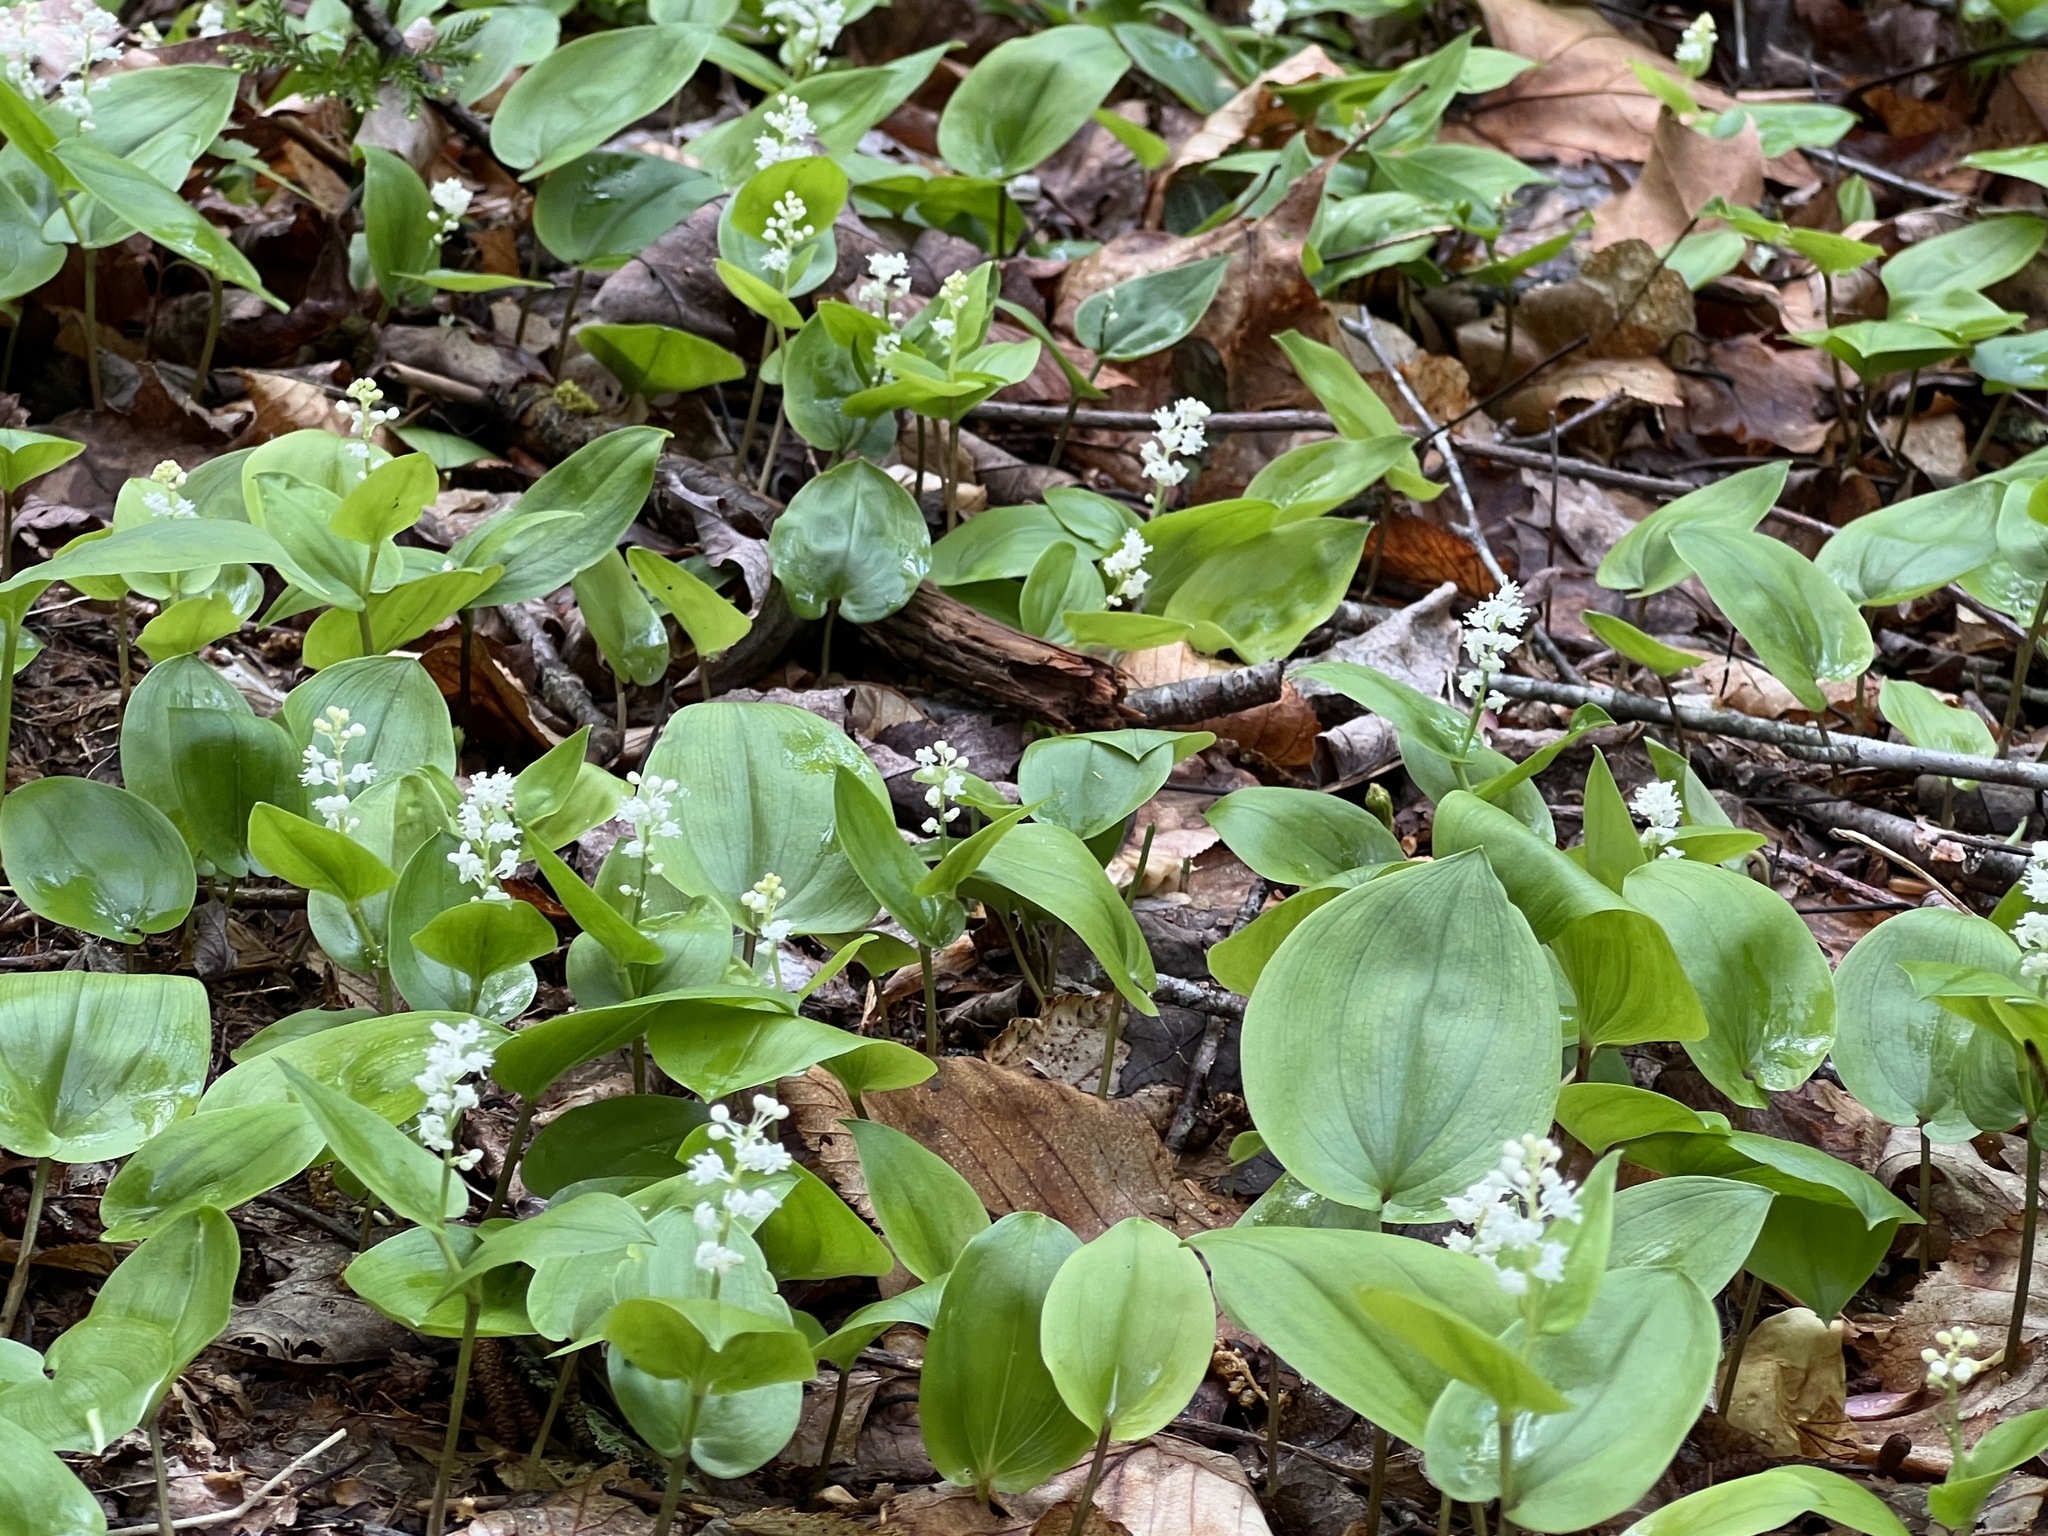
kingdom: Plantae
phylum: Tracheophyta
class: Liliopsida
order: Asparagales
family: Asparagaceae
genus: Maianthemum
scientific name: Maianthemum canadense
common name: False lily-of-the-valley
